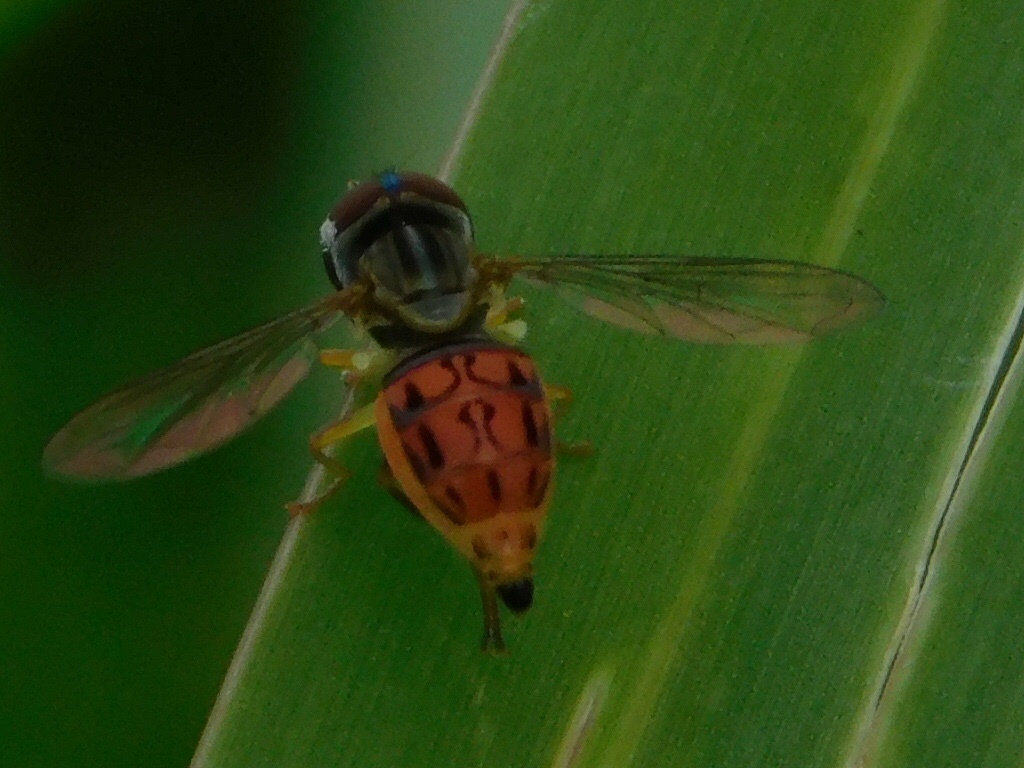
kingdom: Animalia
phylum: Arthropoda
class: Insecta
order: Diptera
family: Syrphidae
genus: Toxomerus
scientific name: Toxomerus boscii
